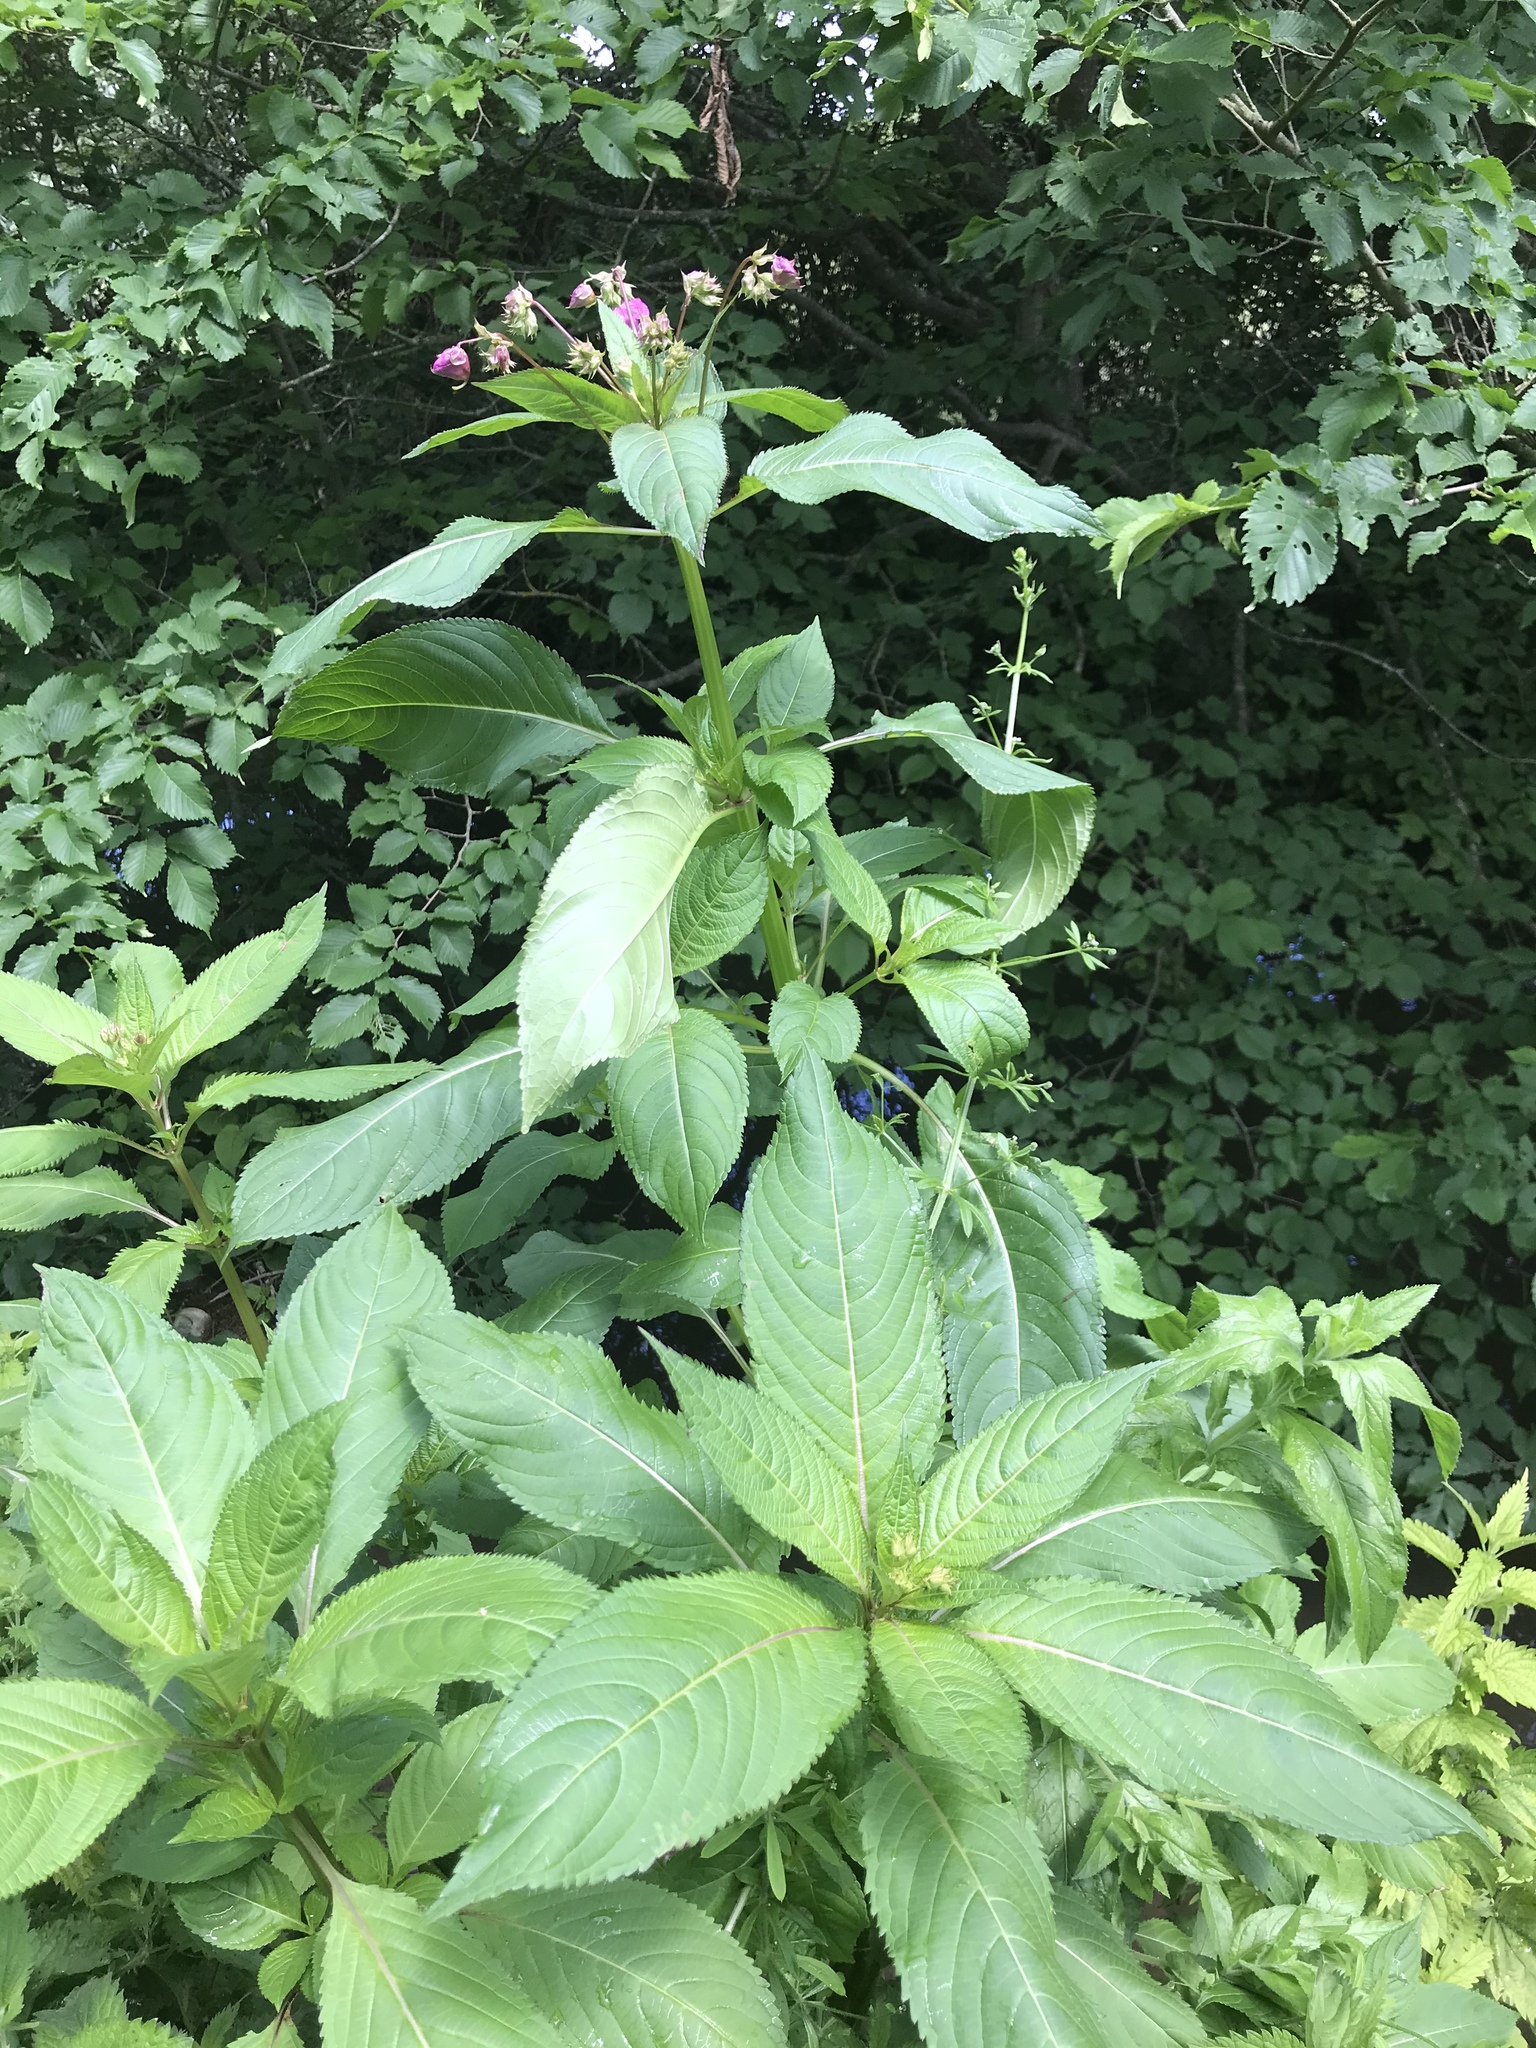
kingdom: Plantae
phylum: Tracheophyta
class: Magnoliopsida
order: Ericales
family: Balsaminaceae
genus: Impatiens
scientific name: Impatiens glandulifera
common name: Himalayan balsam
